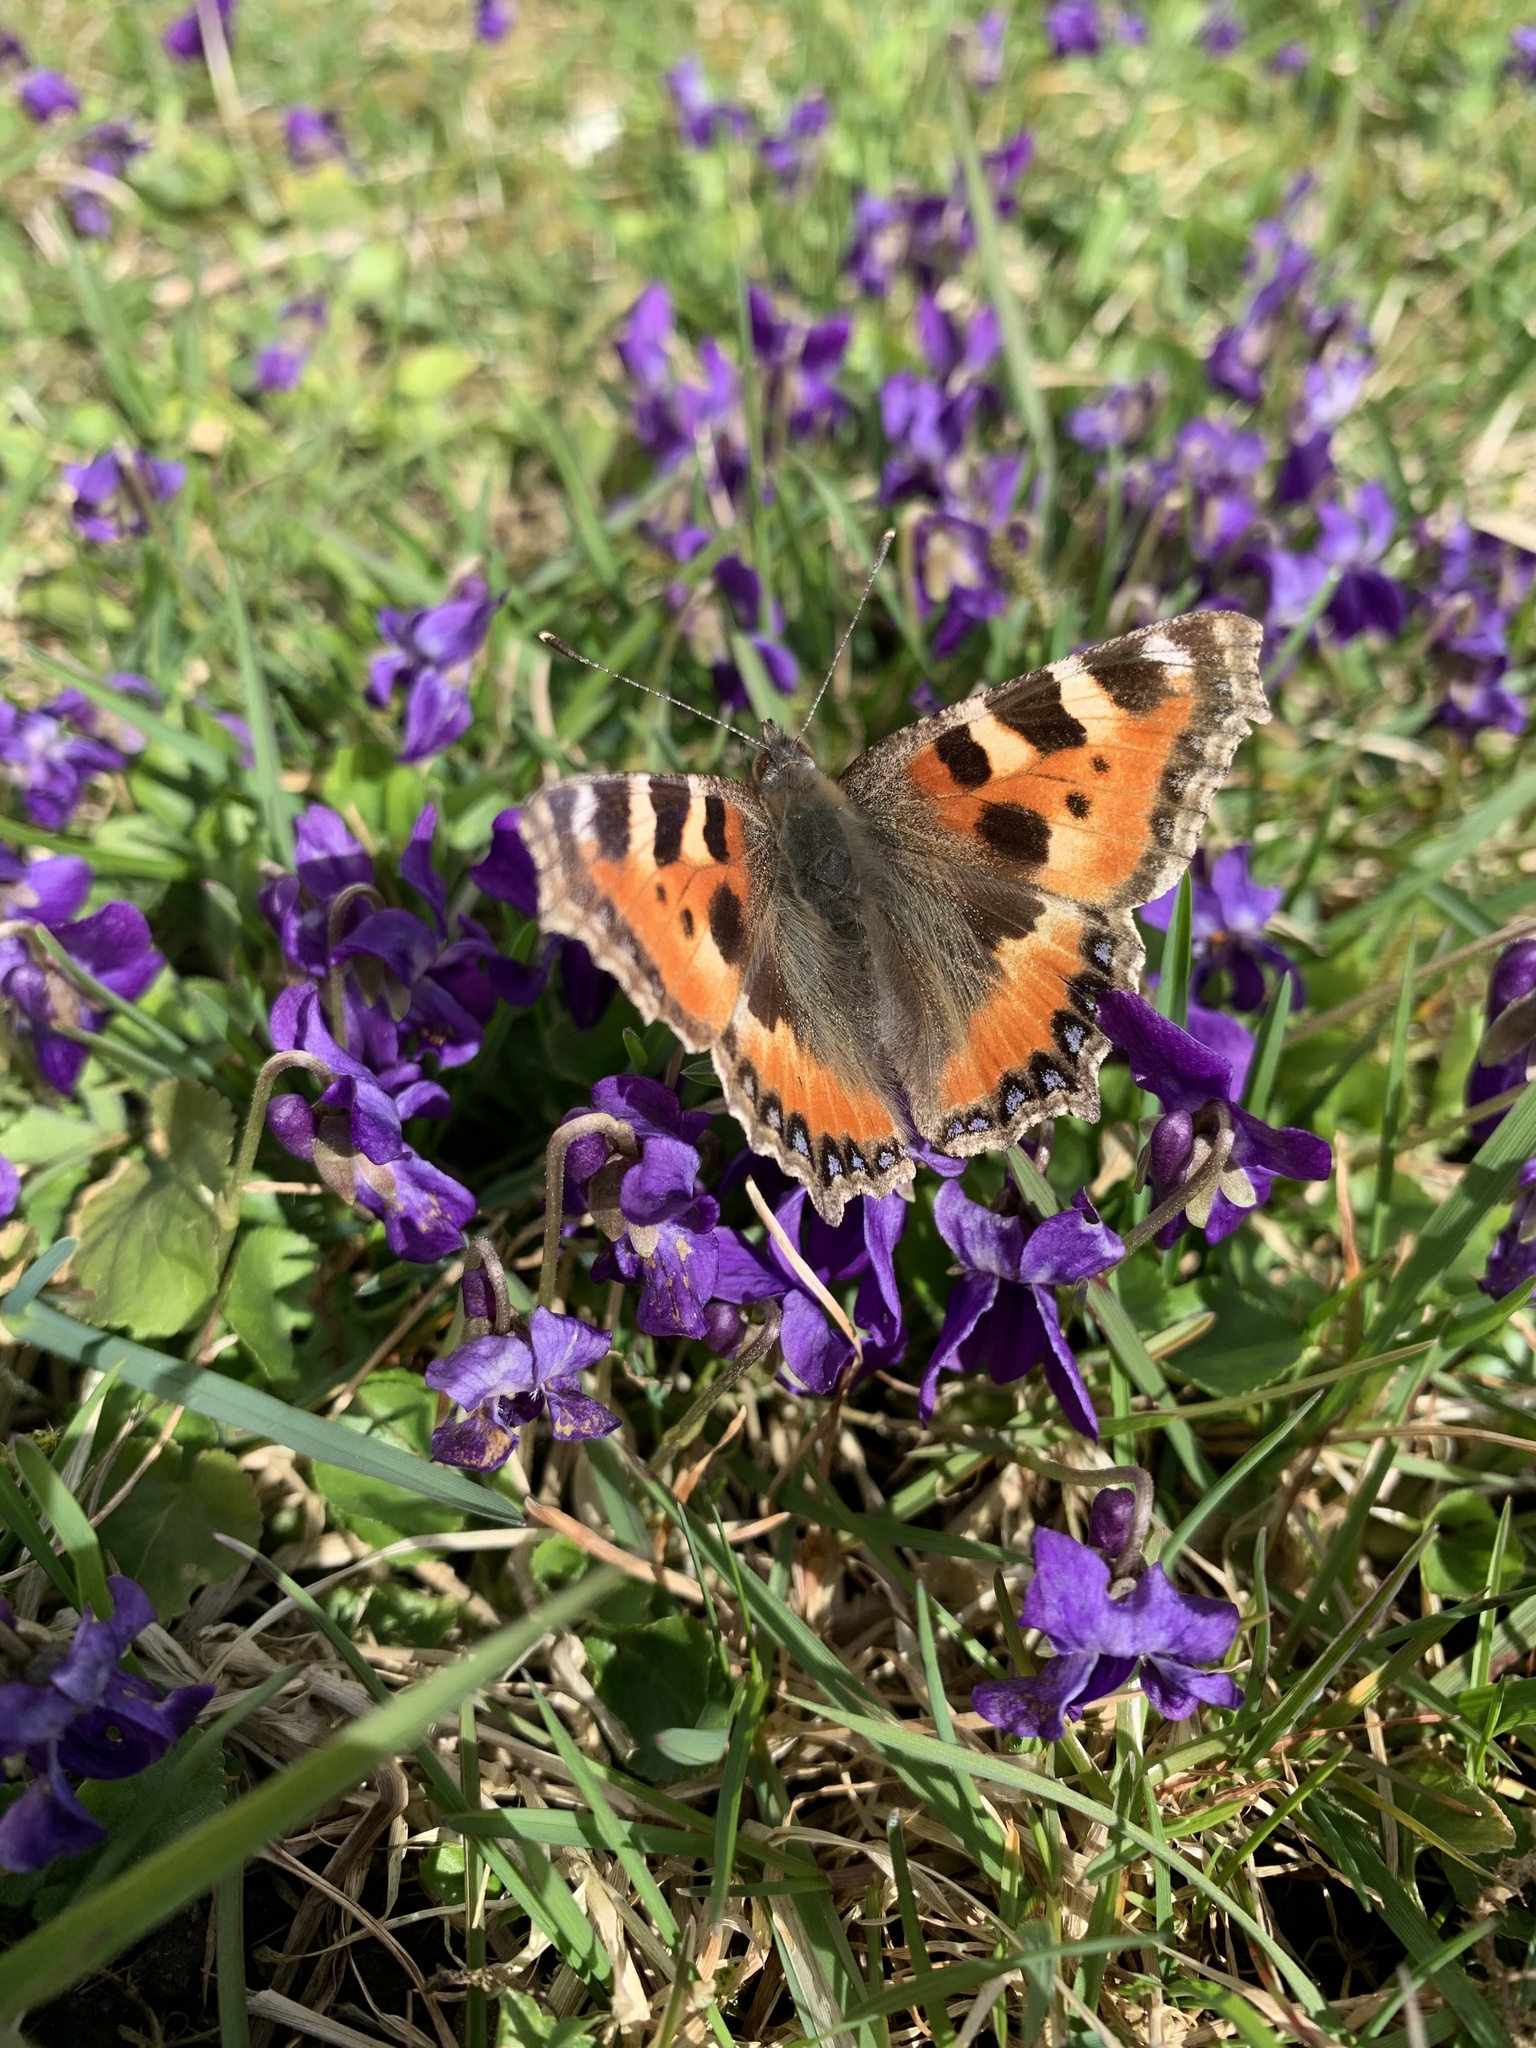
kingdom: Animalia
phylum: Arthropoda
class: Insecta
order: Lepidoptera
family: Nymphalidae
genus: Aglais
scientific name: Aglais urticae
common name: Small tortoiseshell
